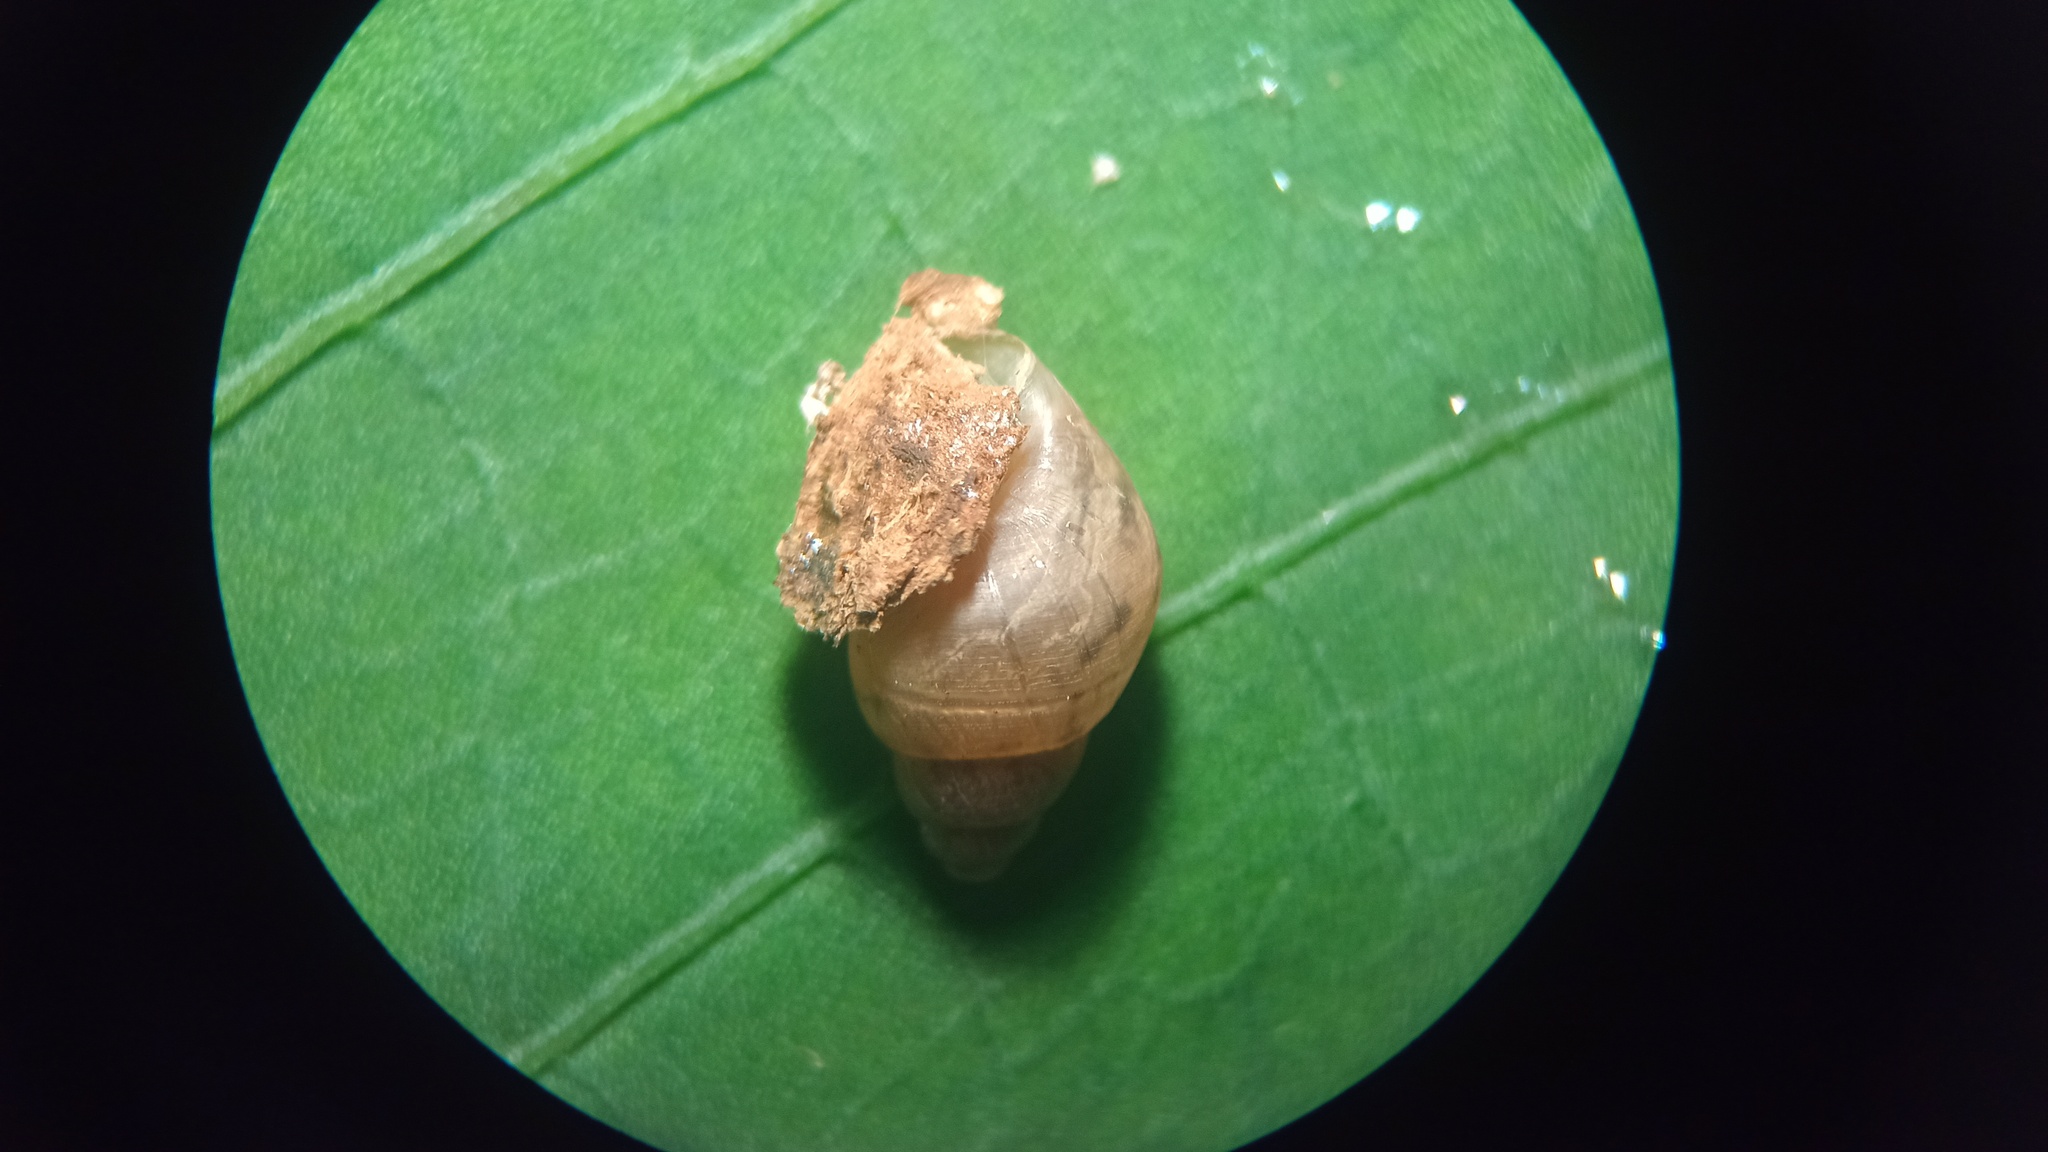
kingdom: Animalia
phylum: Mollusca
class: Gastropoda
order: Stylommatophora
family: Bulimulidae
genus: Bulimulus
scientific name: Bulimulus tenuissimus
